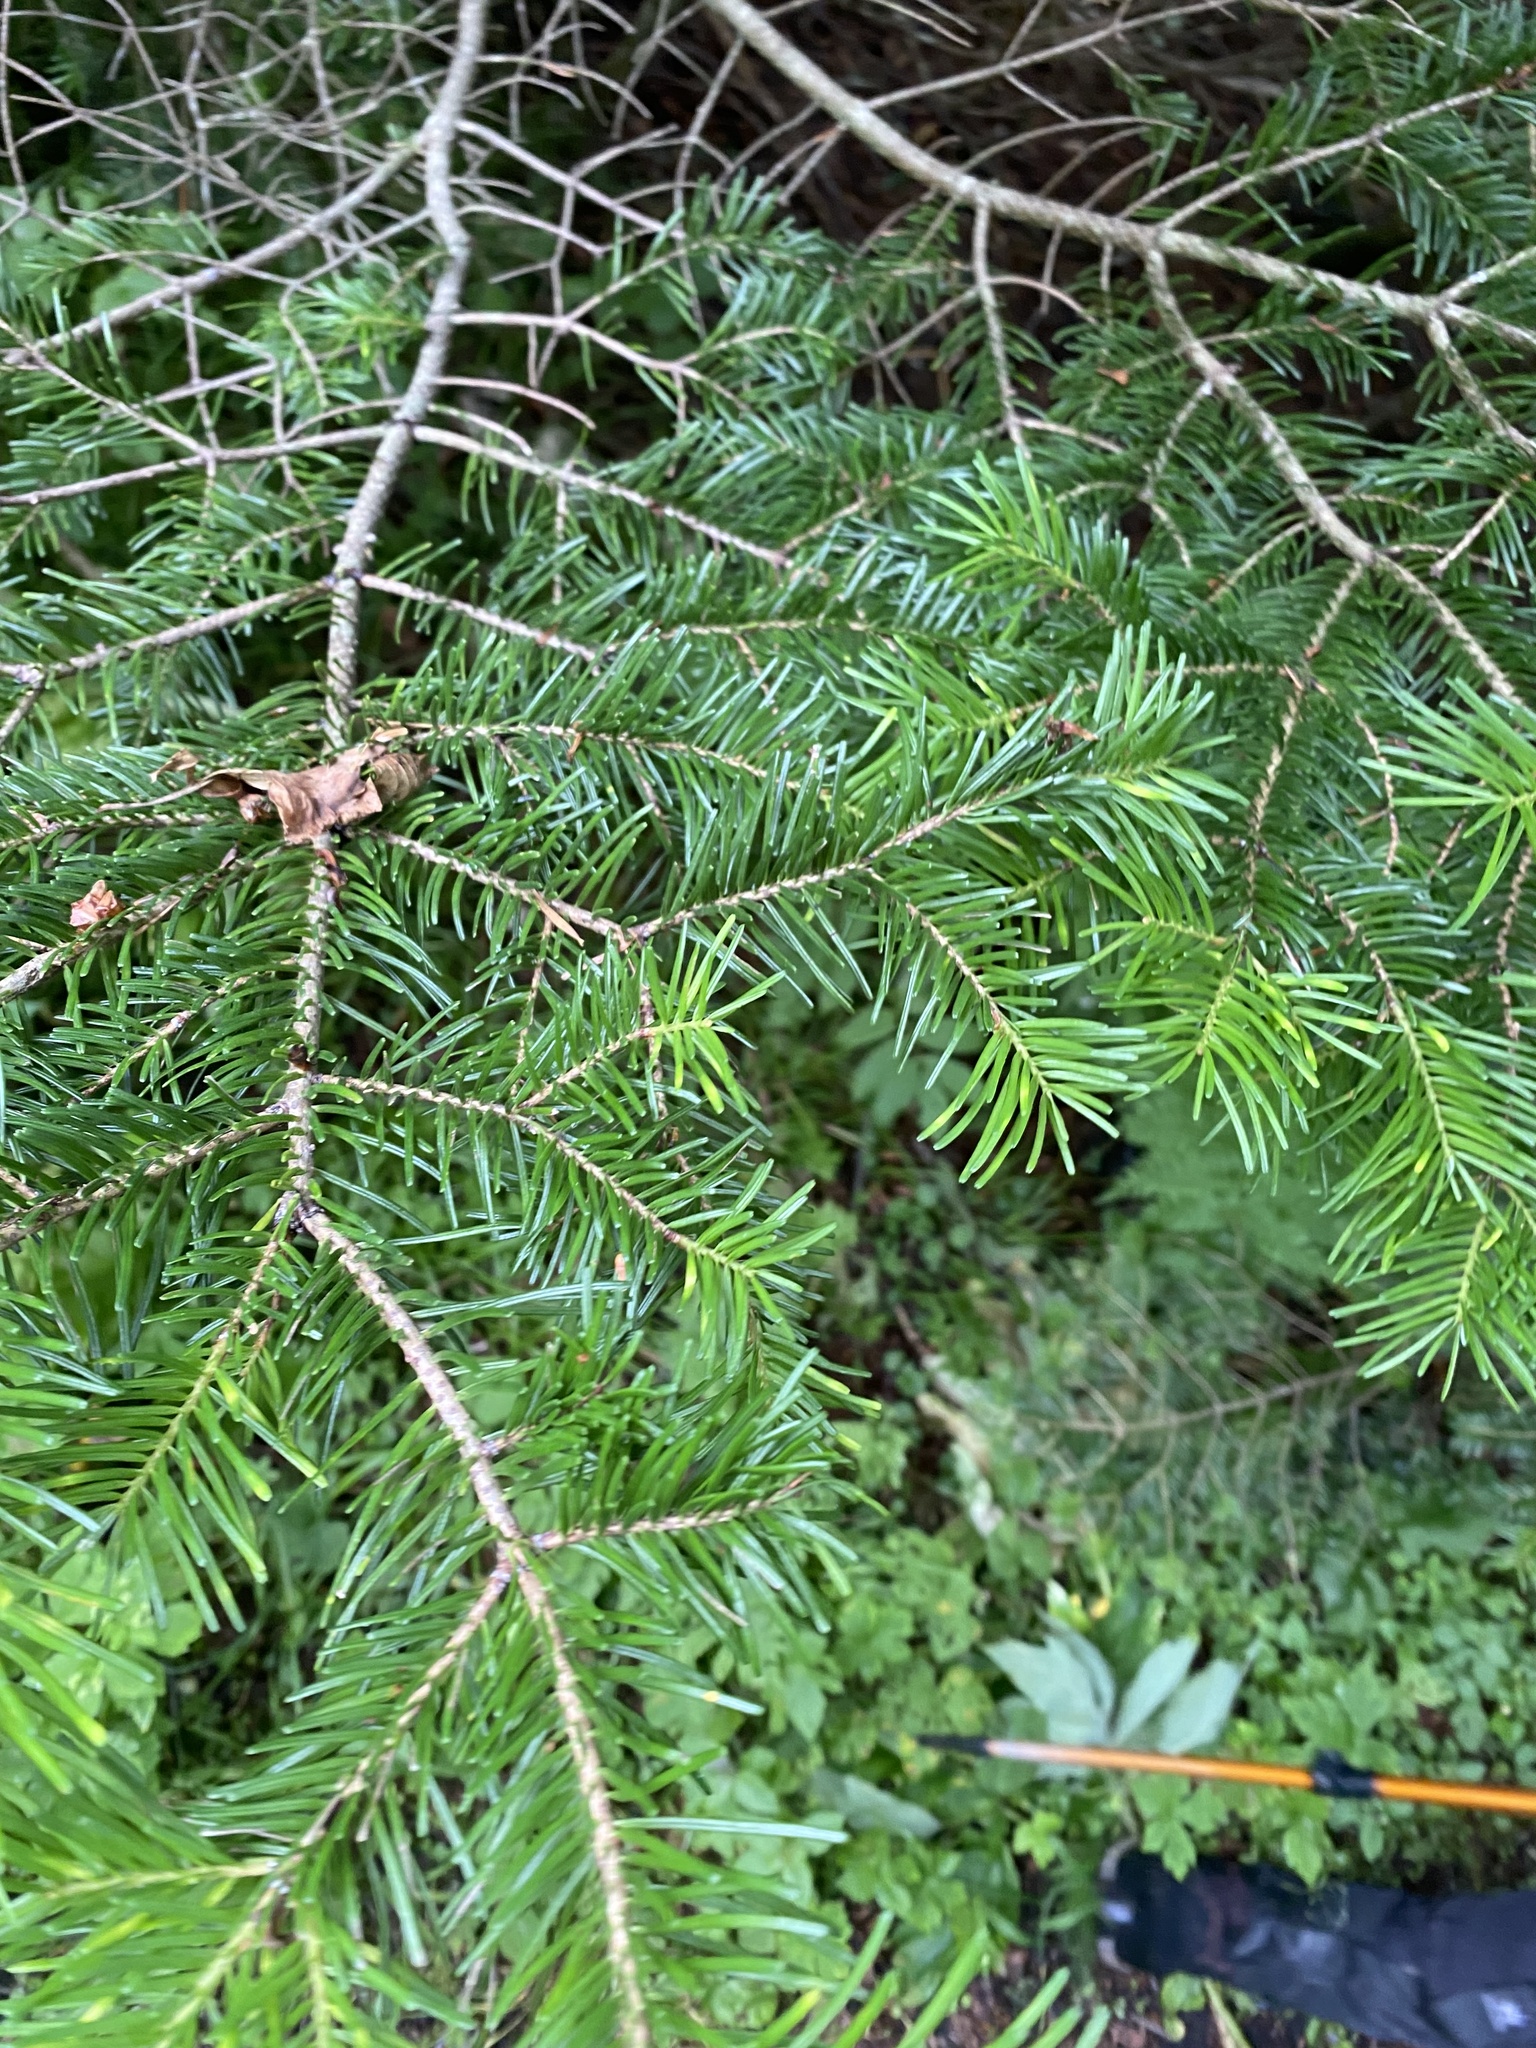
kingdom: Plantae
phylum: Tracheophyta
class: Pinopsida
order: Pinales
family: Pinaceae
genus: Abies
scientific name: Abies sachalinensis
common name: Sakhalin fir
